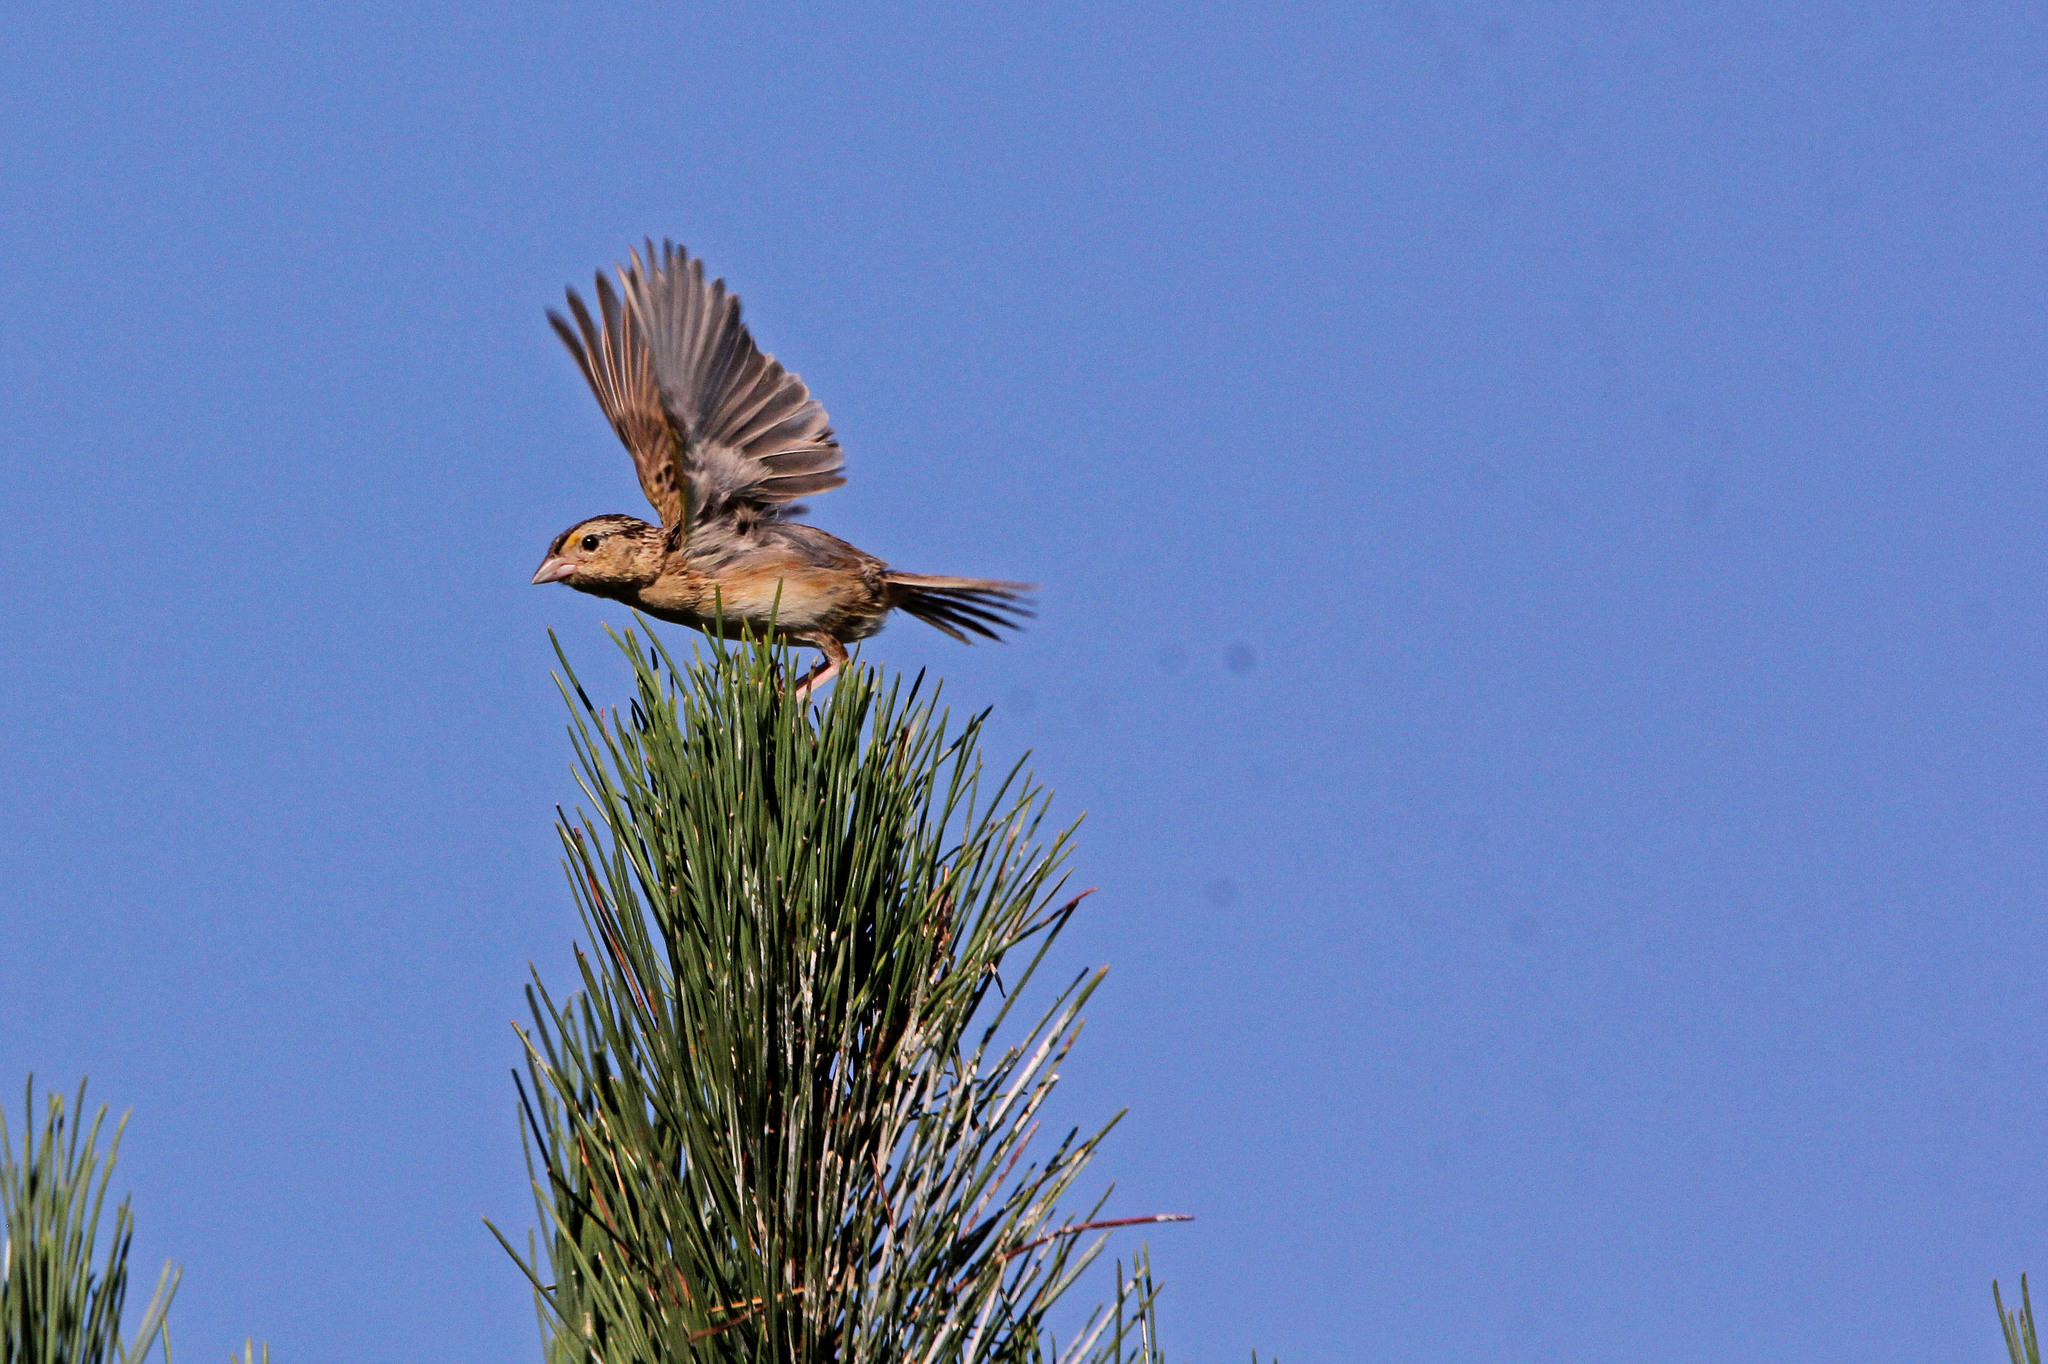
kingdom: Animalia
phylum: Chordata
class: Aves
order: Passeriformes
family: Passerellidae
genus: Ammodramus
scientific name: Ammodramus savannarum
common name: Grasshopper sparrow
